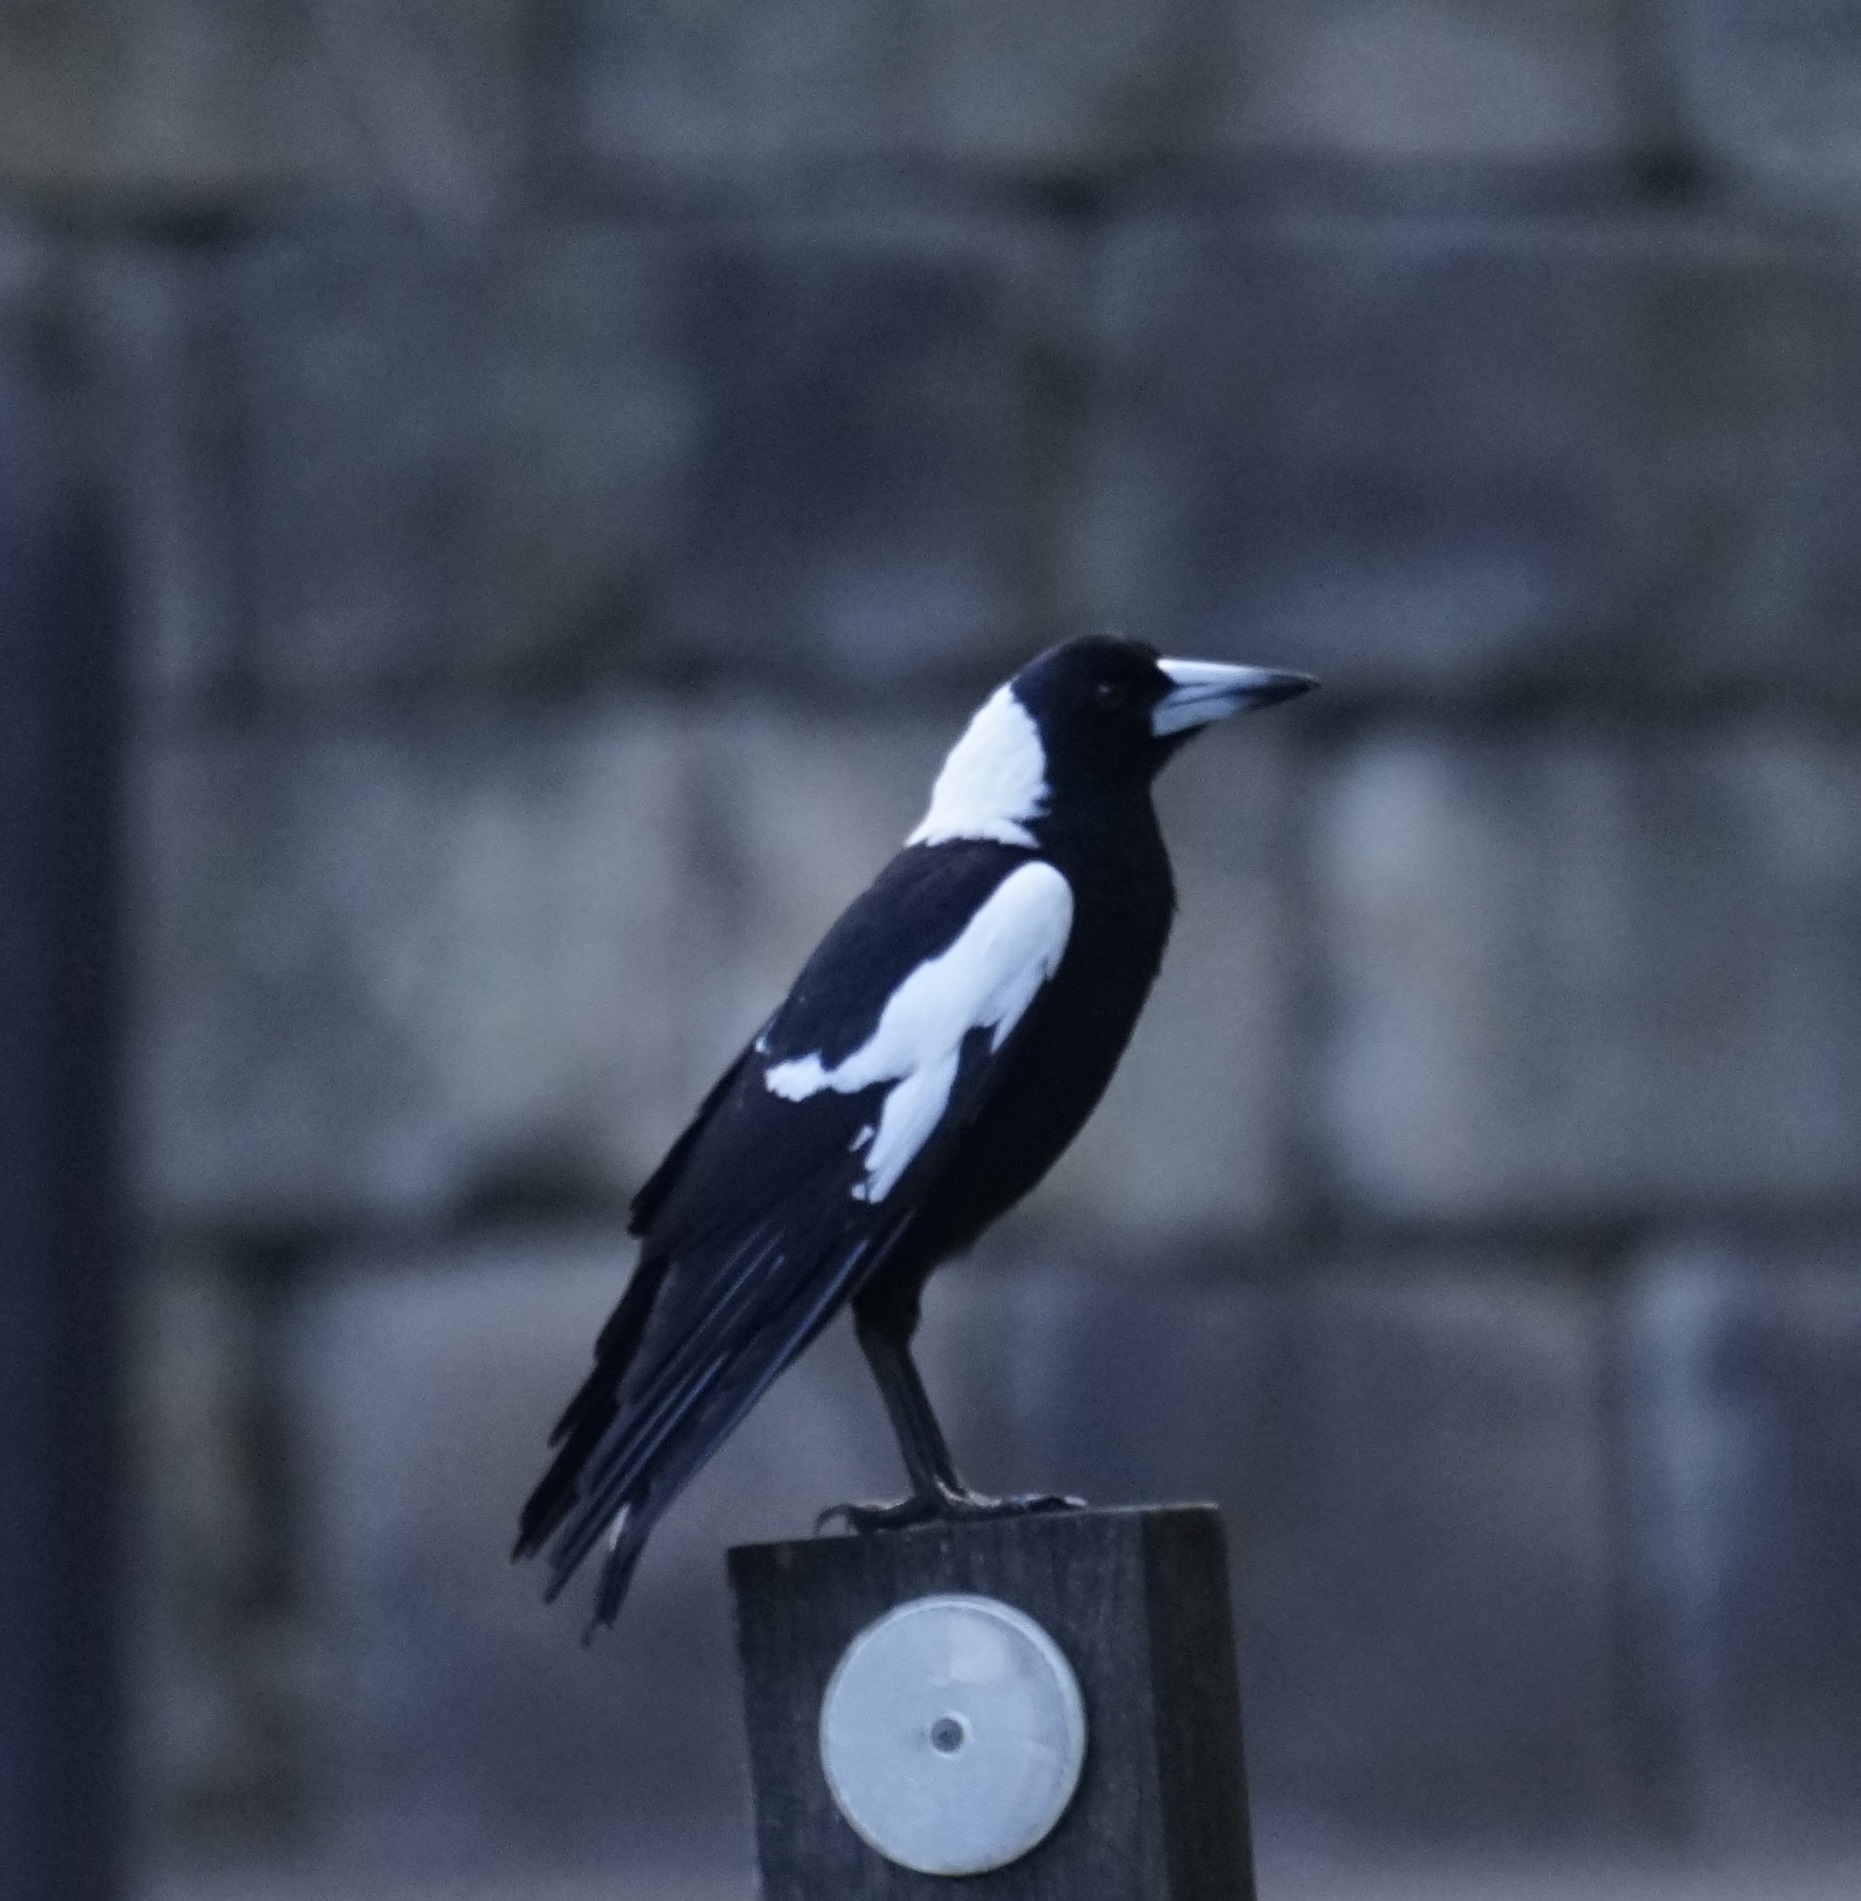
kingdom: Animalia
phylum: Chordata
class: Aves
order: Passeriformes
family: Cracticidae
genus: Gymnorhina
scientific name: Gymnorhina tibicen
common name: Australian magpie
